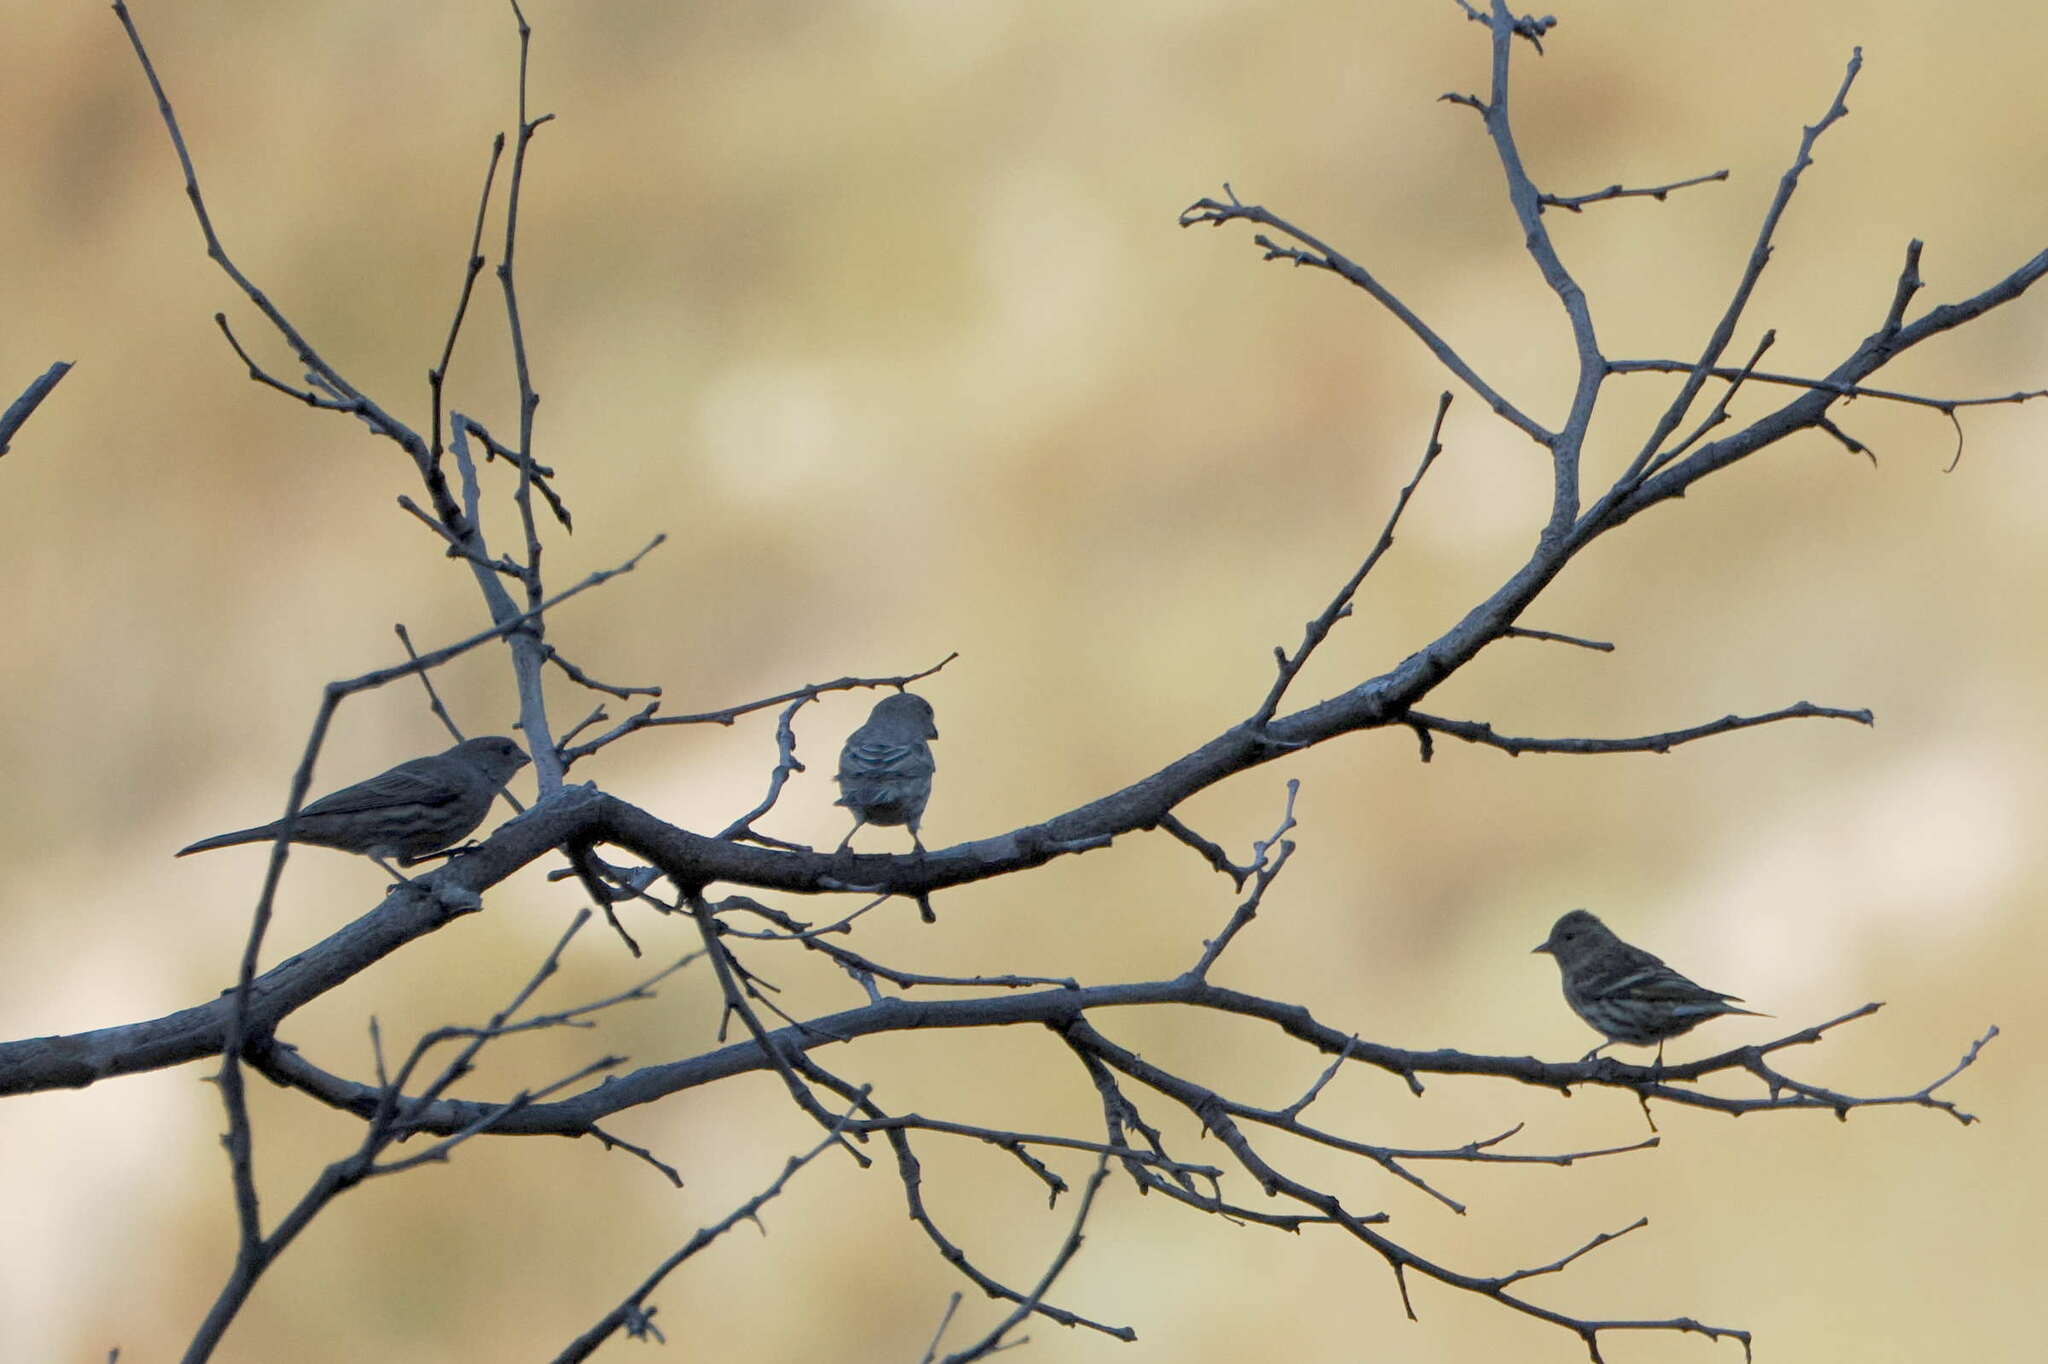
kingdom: Animalia
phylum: Chordata
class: Aves
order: Passeriformes
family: Fringillidae
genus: Spinus
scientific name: Spinus pinus
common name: Pine siskin
